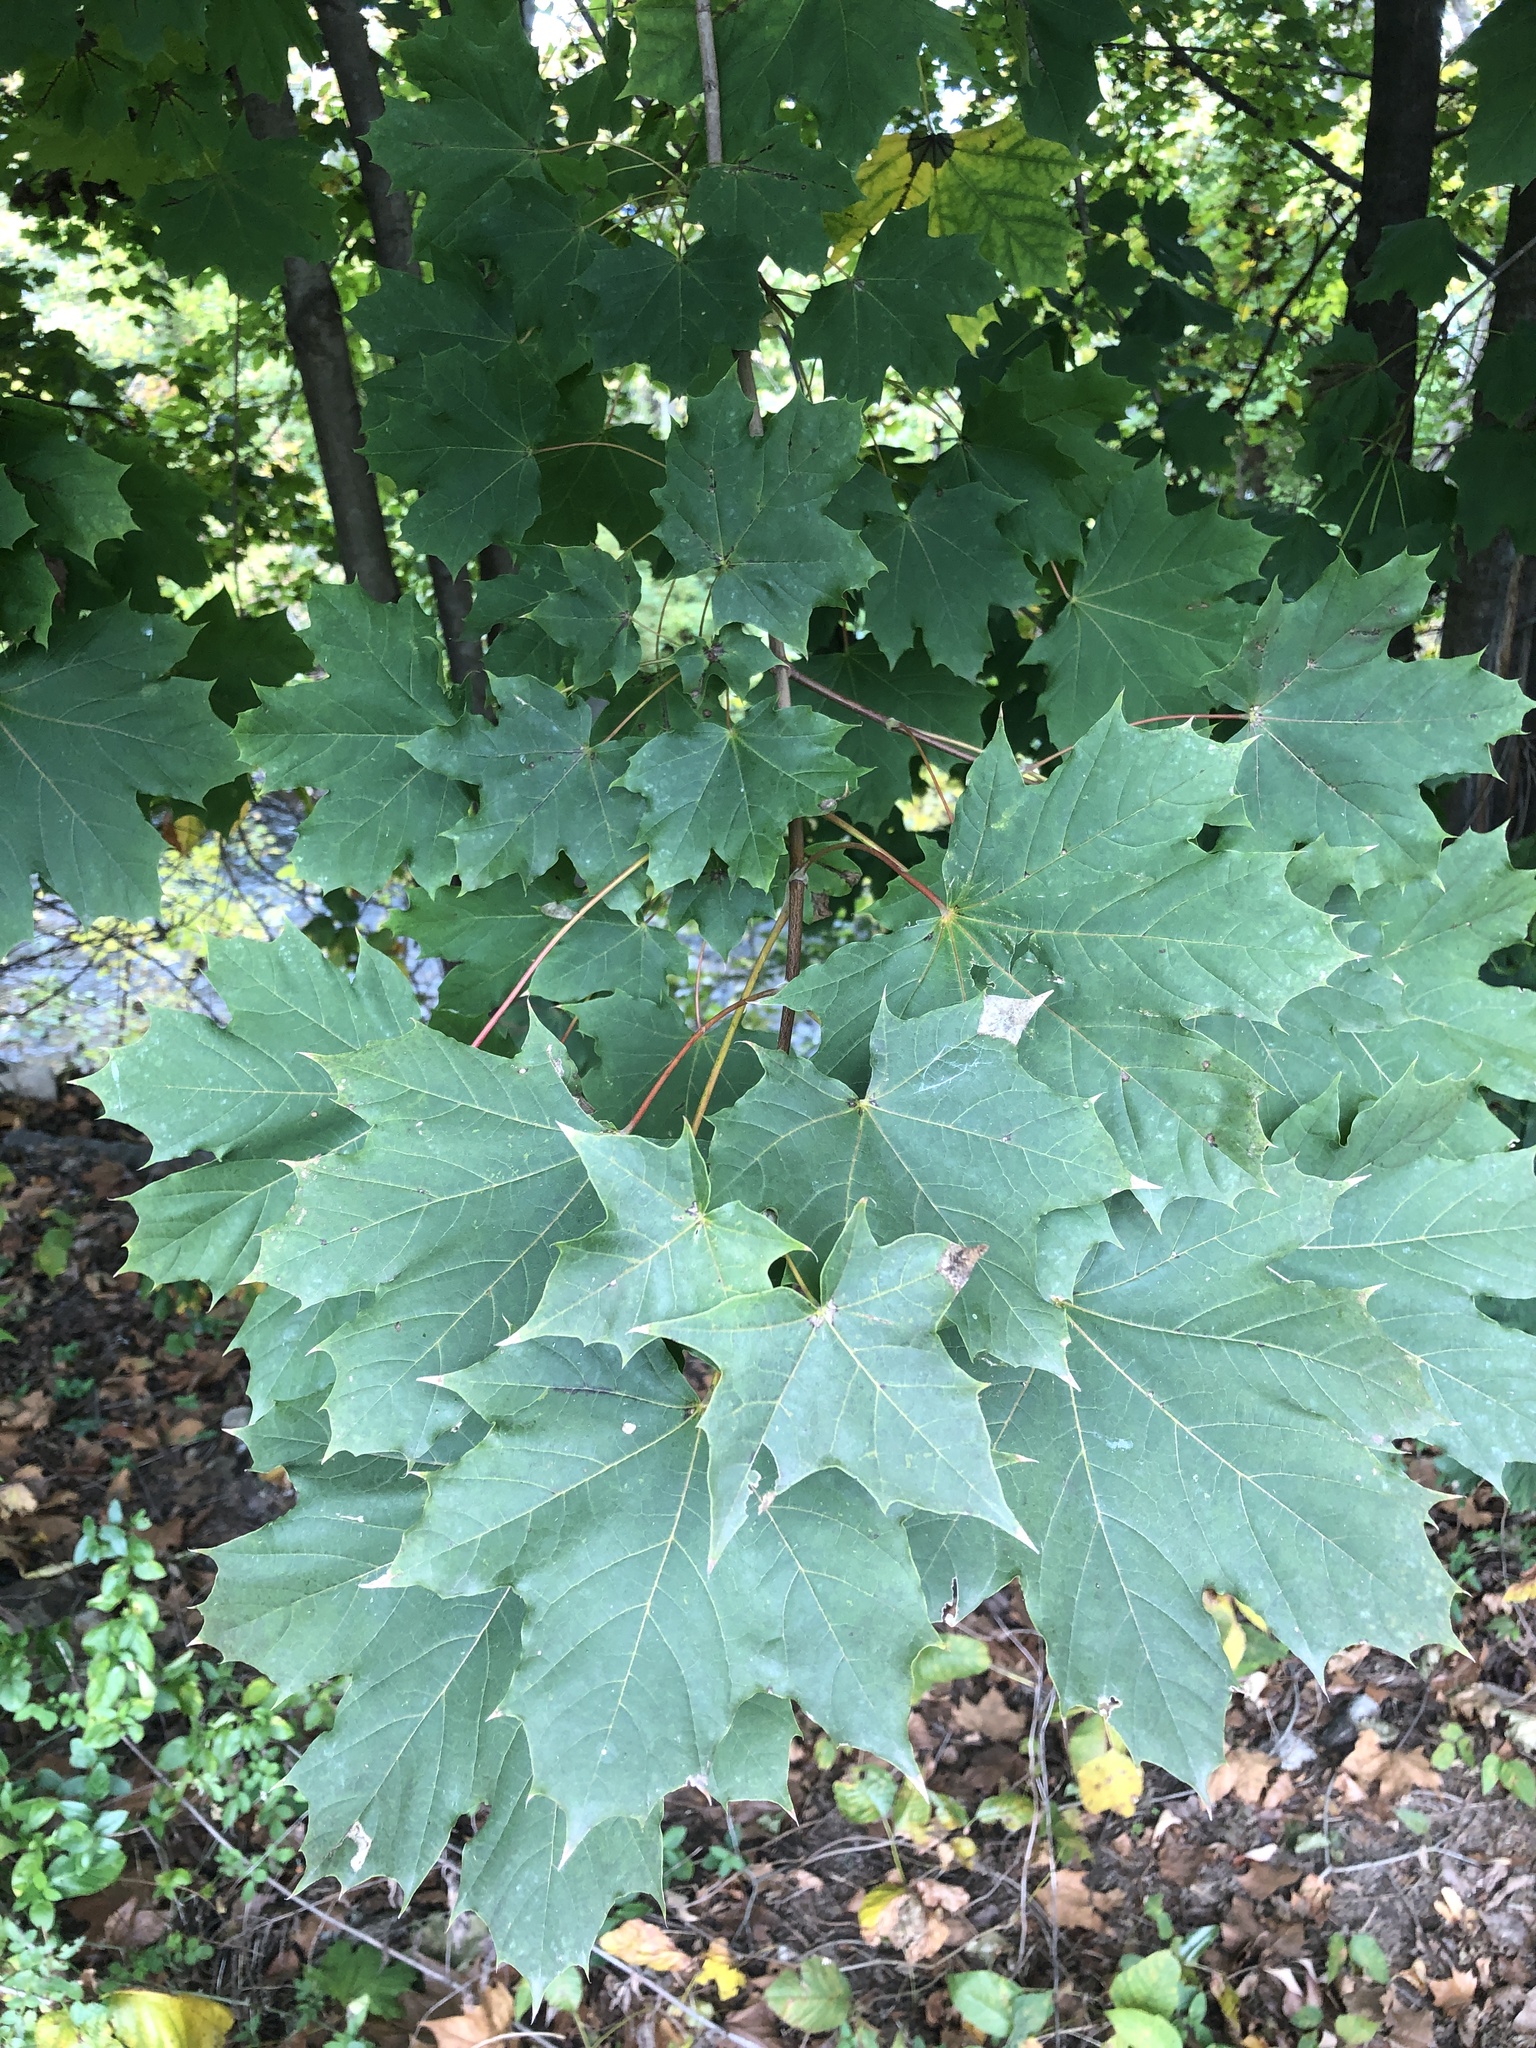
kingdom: Plantae
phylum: Tracheophyta
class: Magnoliopsida
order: Sapindales
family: Sapindaceae
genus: Acer
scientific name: Acer platanoides
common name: Norway maple
